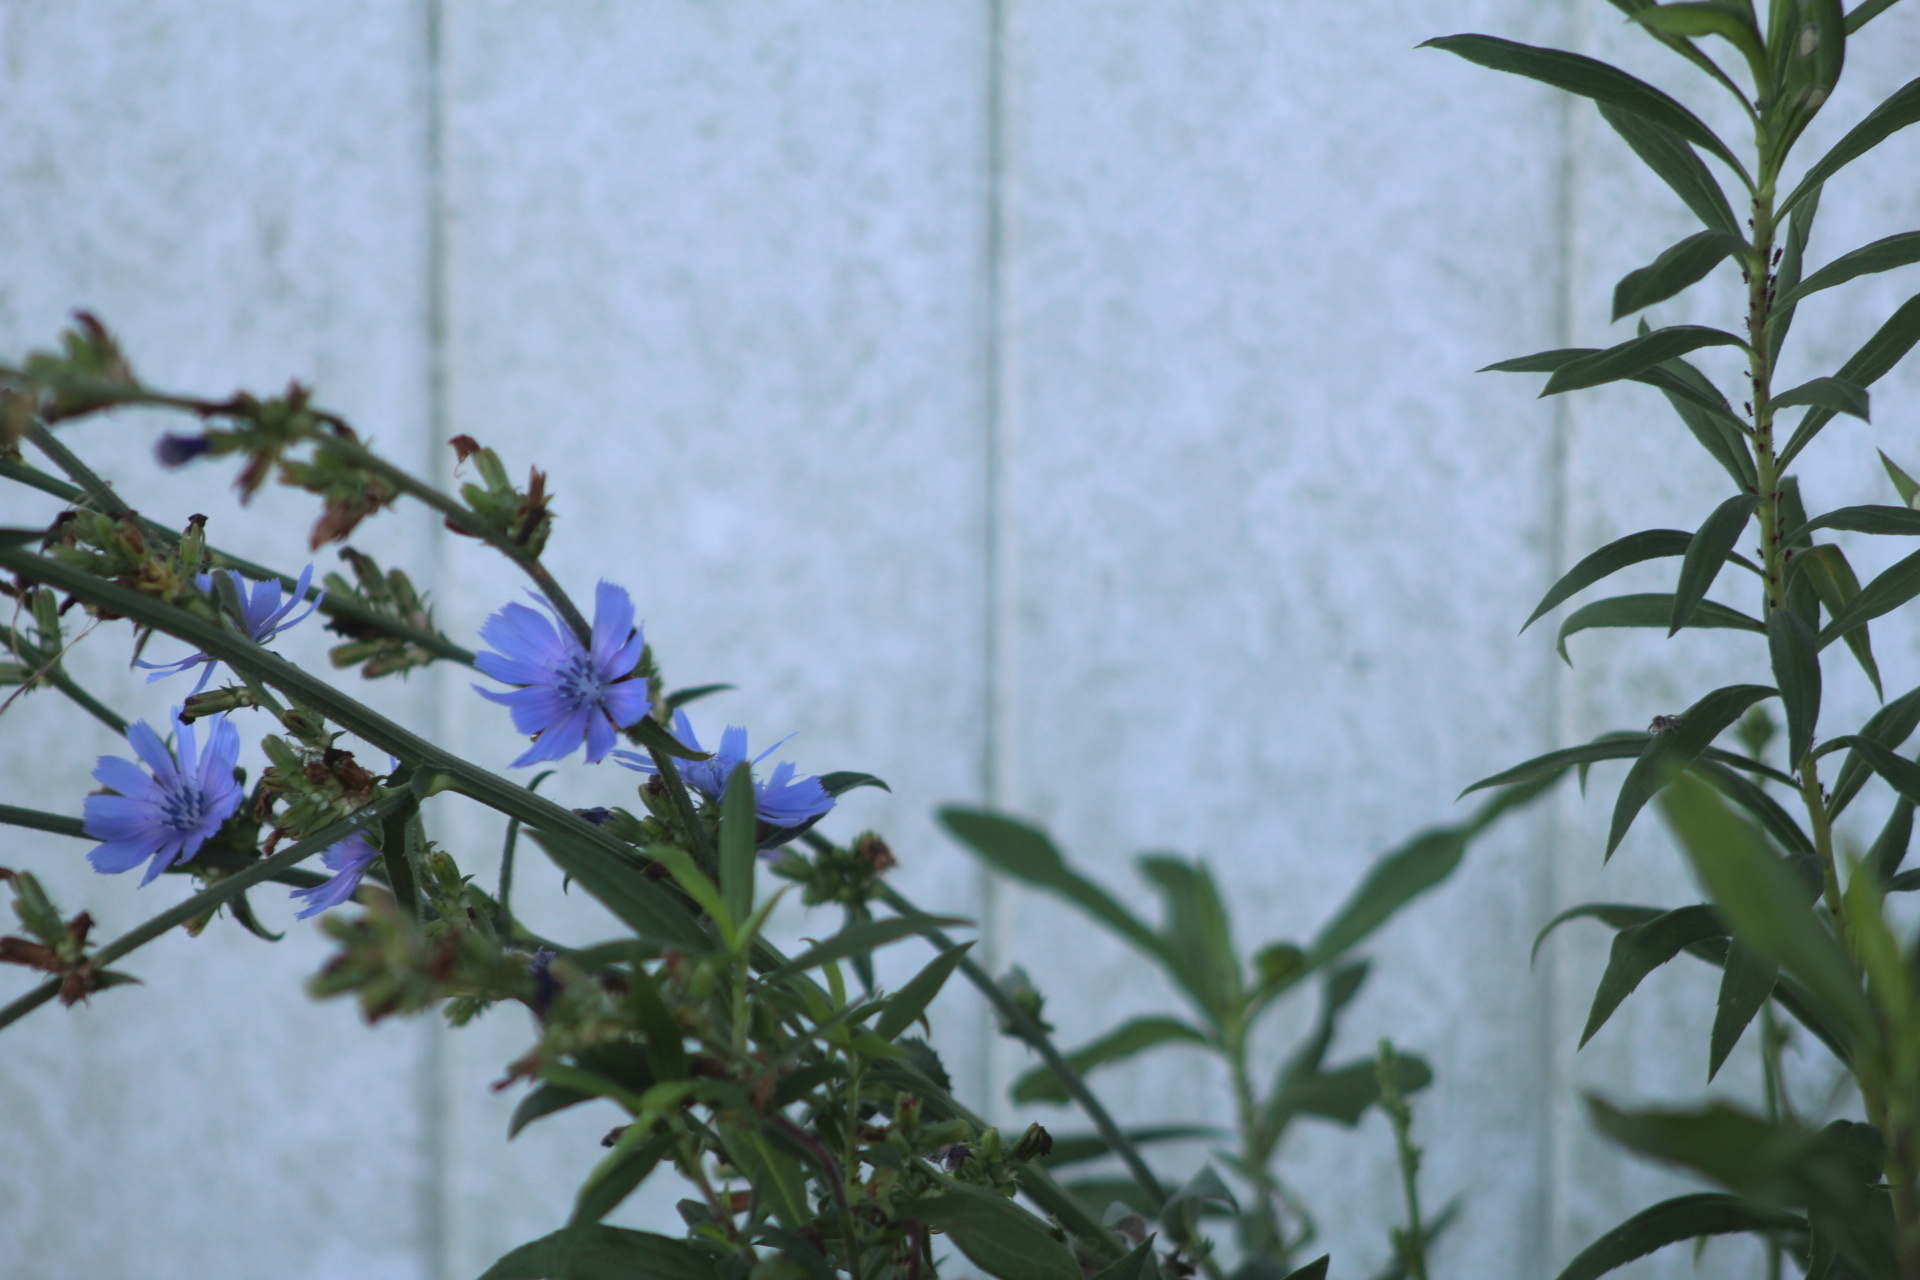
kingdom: Plantae
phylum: Tracheophyta
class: Magnoliopsida
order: Asterales
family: Asteraceae
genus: Cichorium
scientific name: Cichorium intybus
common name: Chicory
